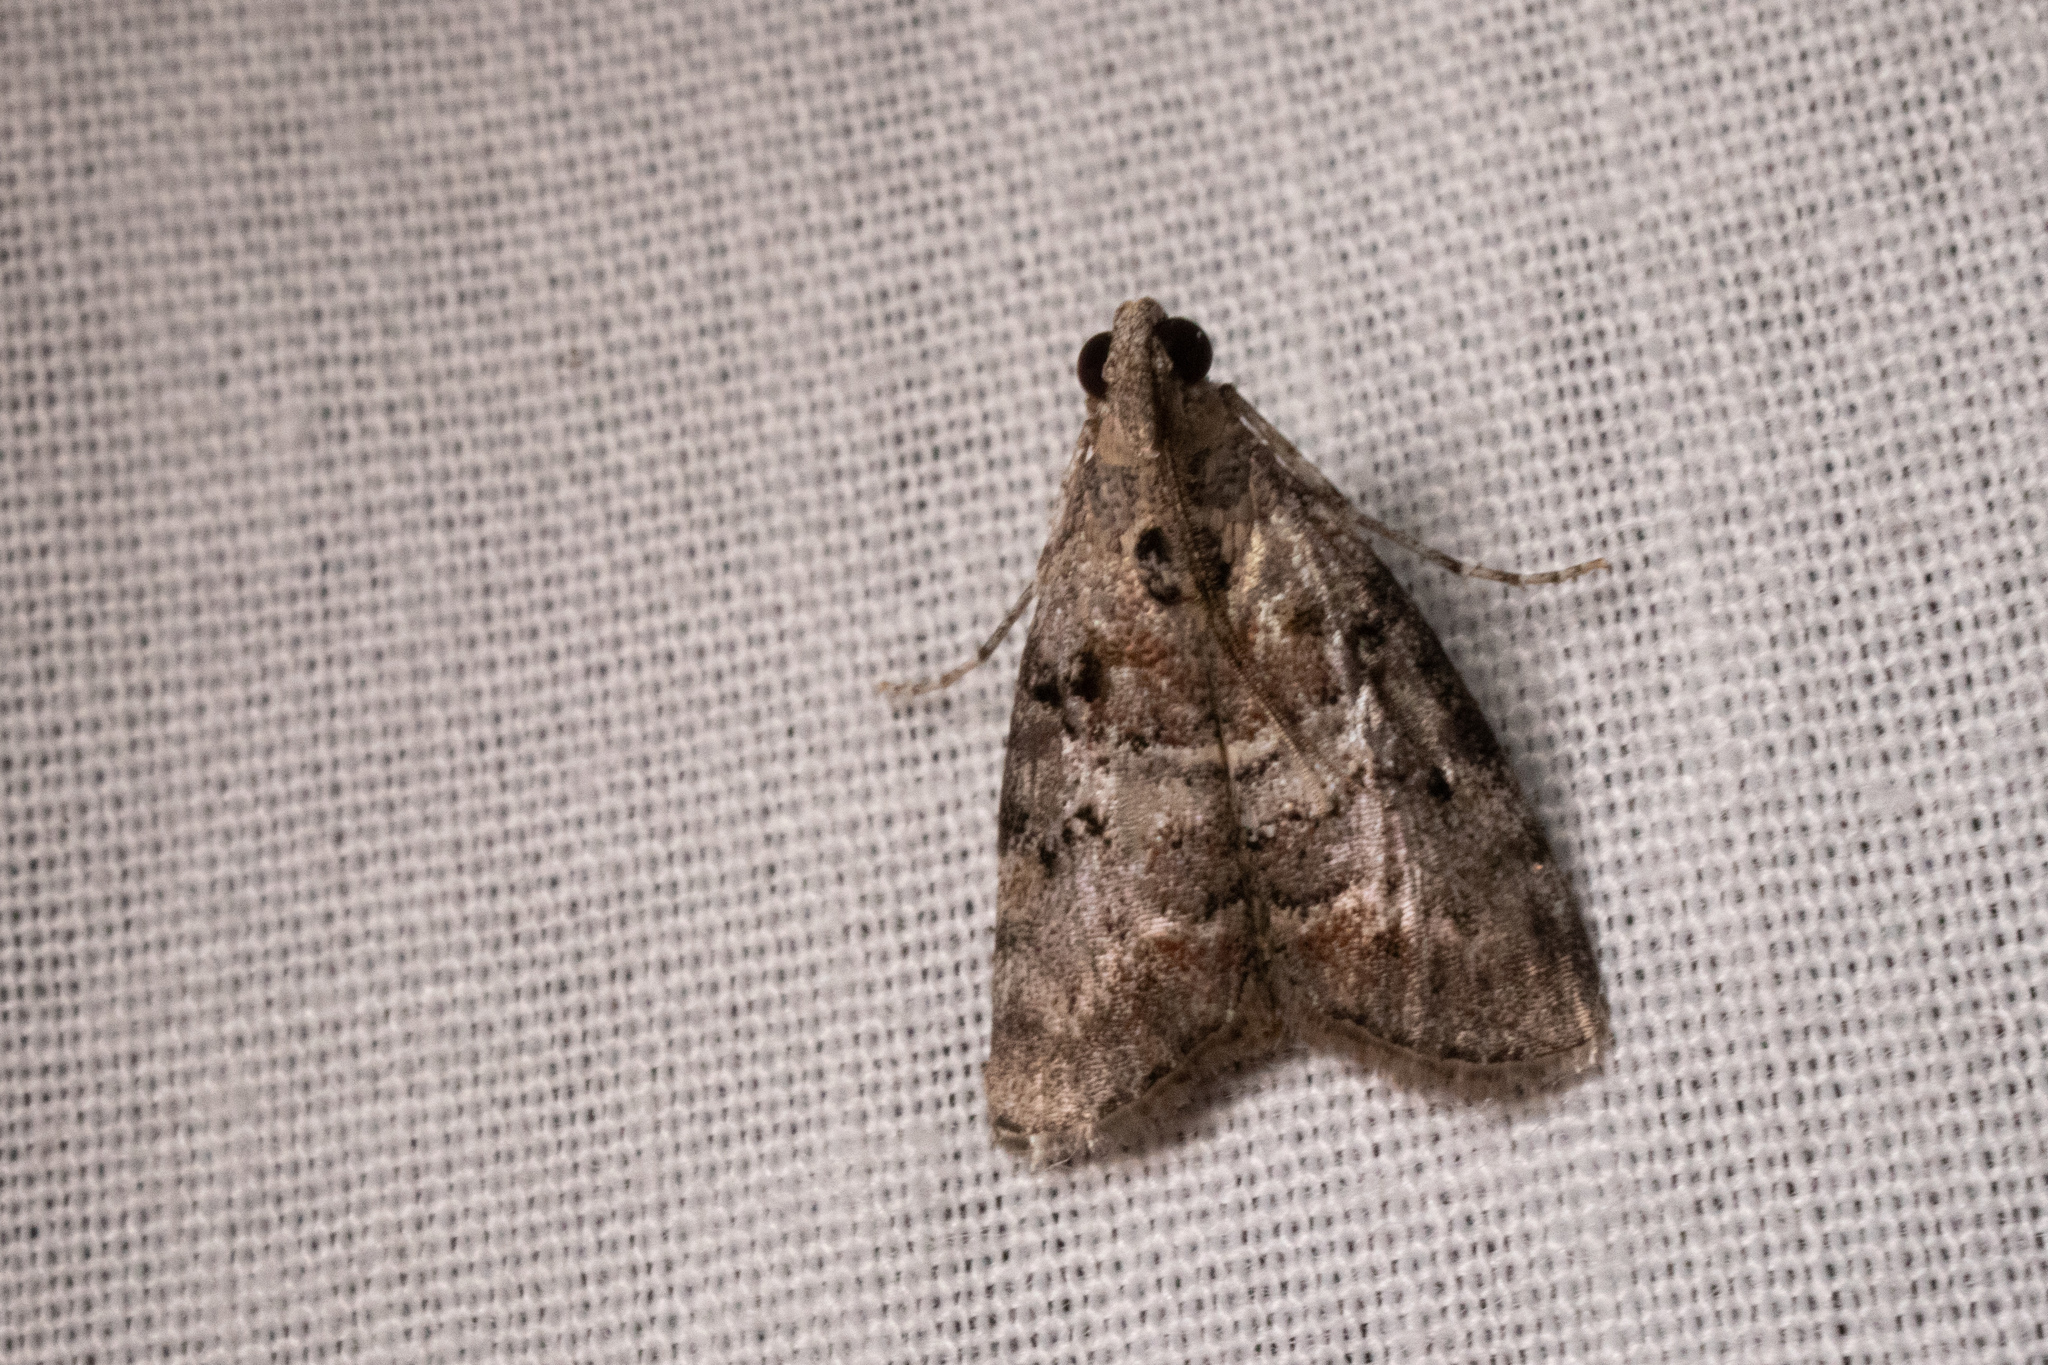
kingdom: Animalia
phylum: Arthropoda
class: Insecta
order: Lepidoptera
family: Pyralidae
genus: Pococera
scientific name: Pococera expandens
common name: Striped oak webworm moth
